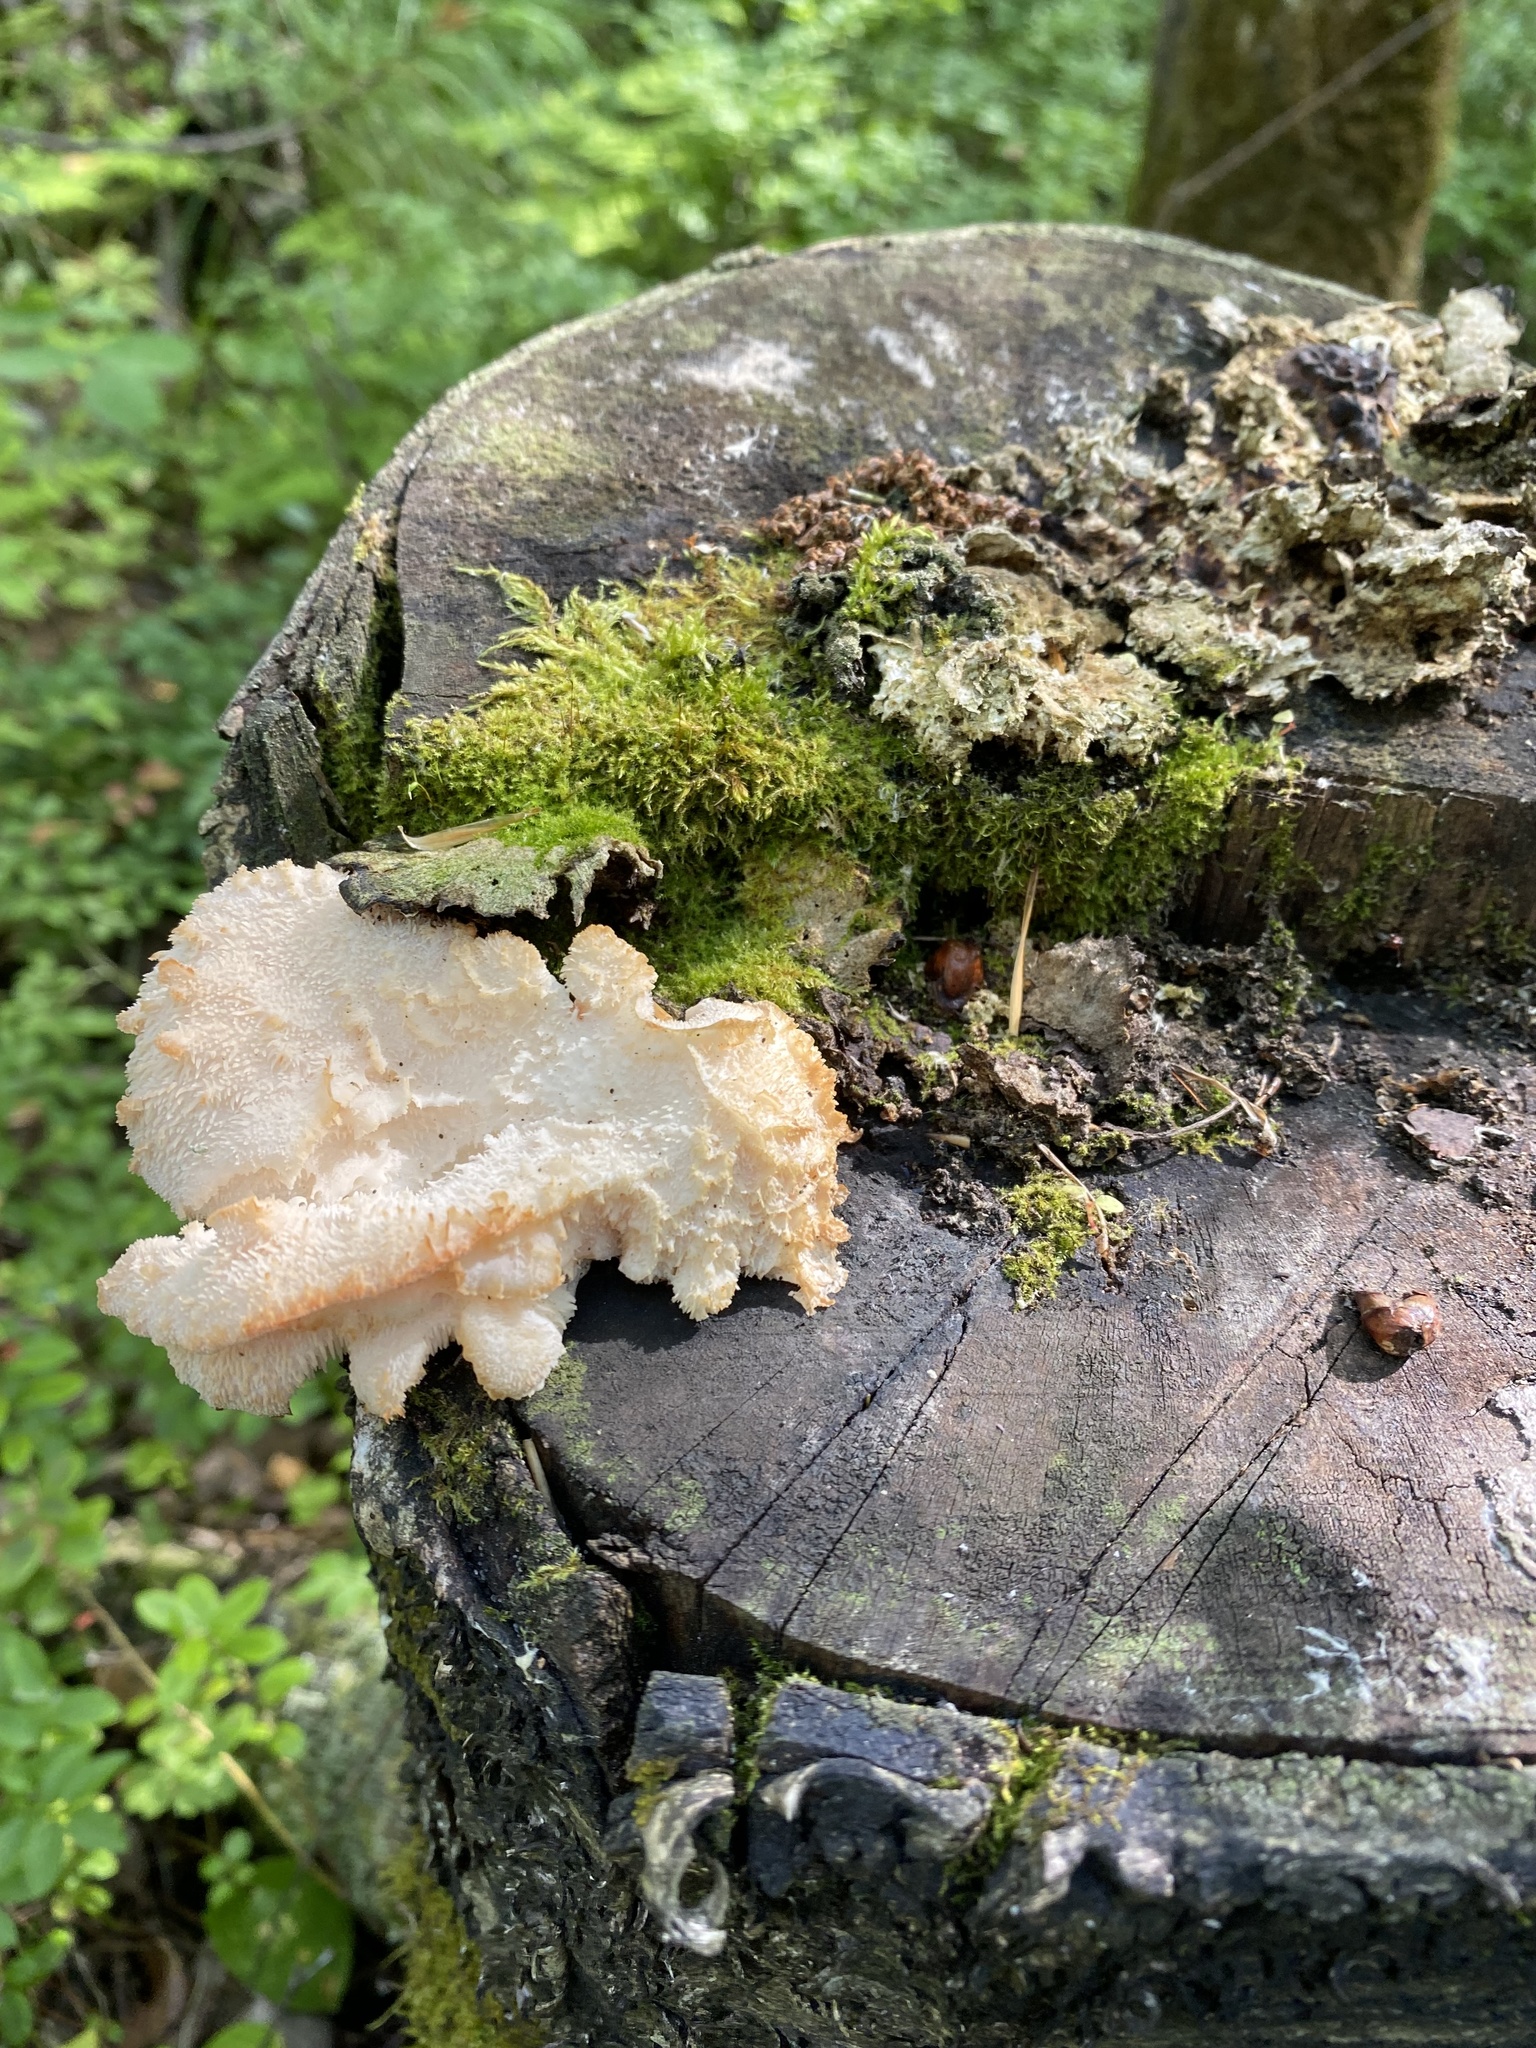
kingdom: Fungi
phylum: Basidiomycota
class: Agaricomycetes
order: Russulales
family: Hericiaceae
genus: Hericium
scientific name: Hericium cirrhatum
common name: Tiered tooth
